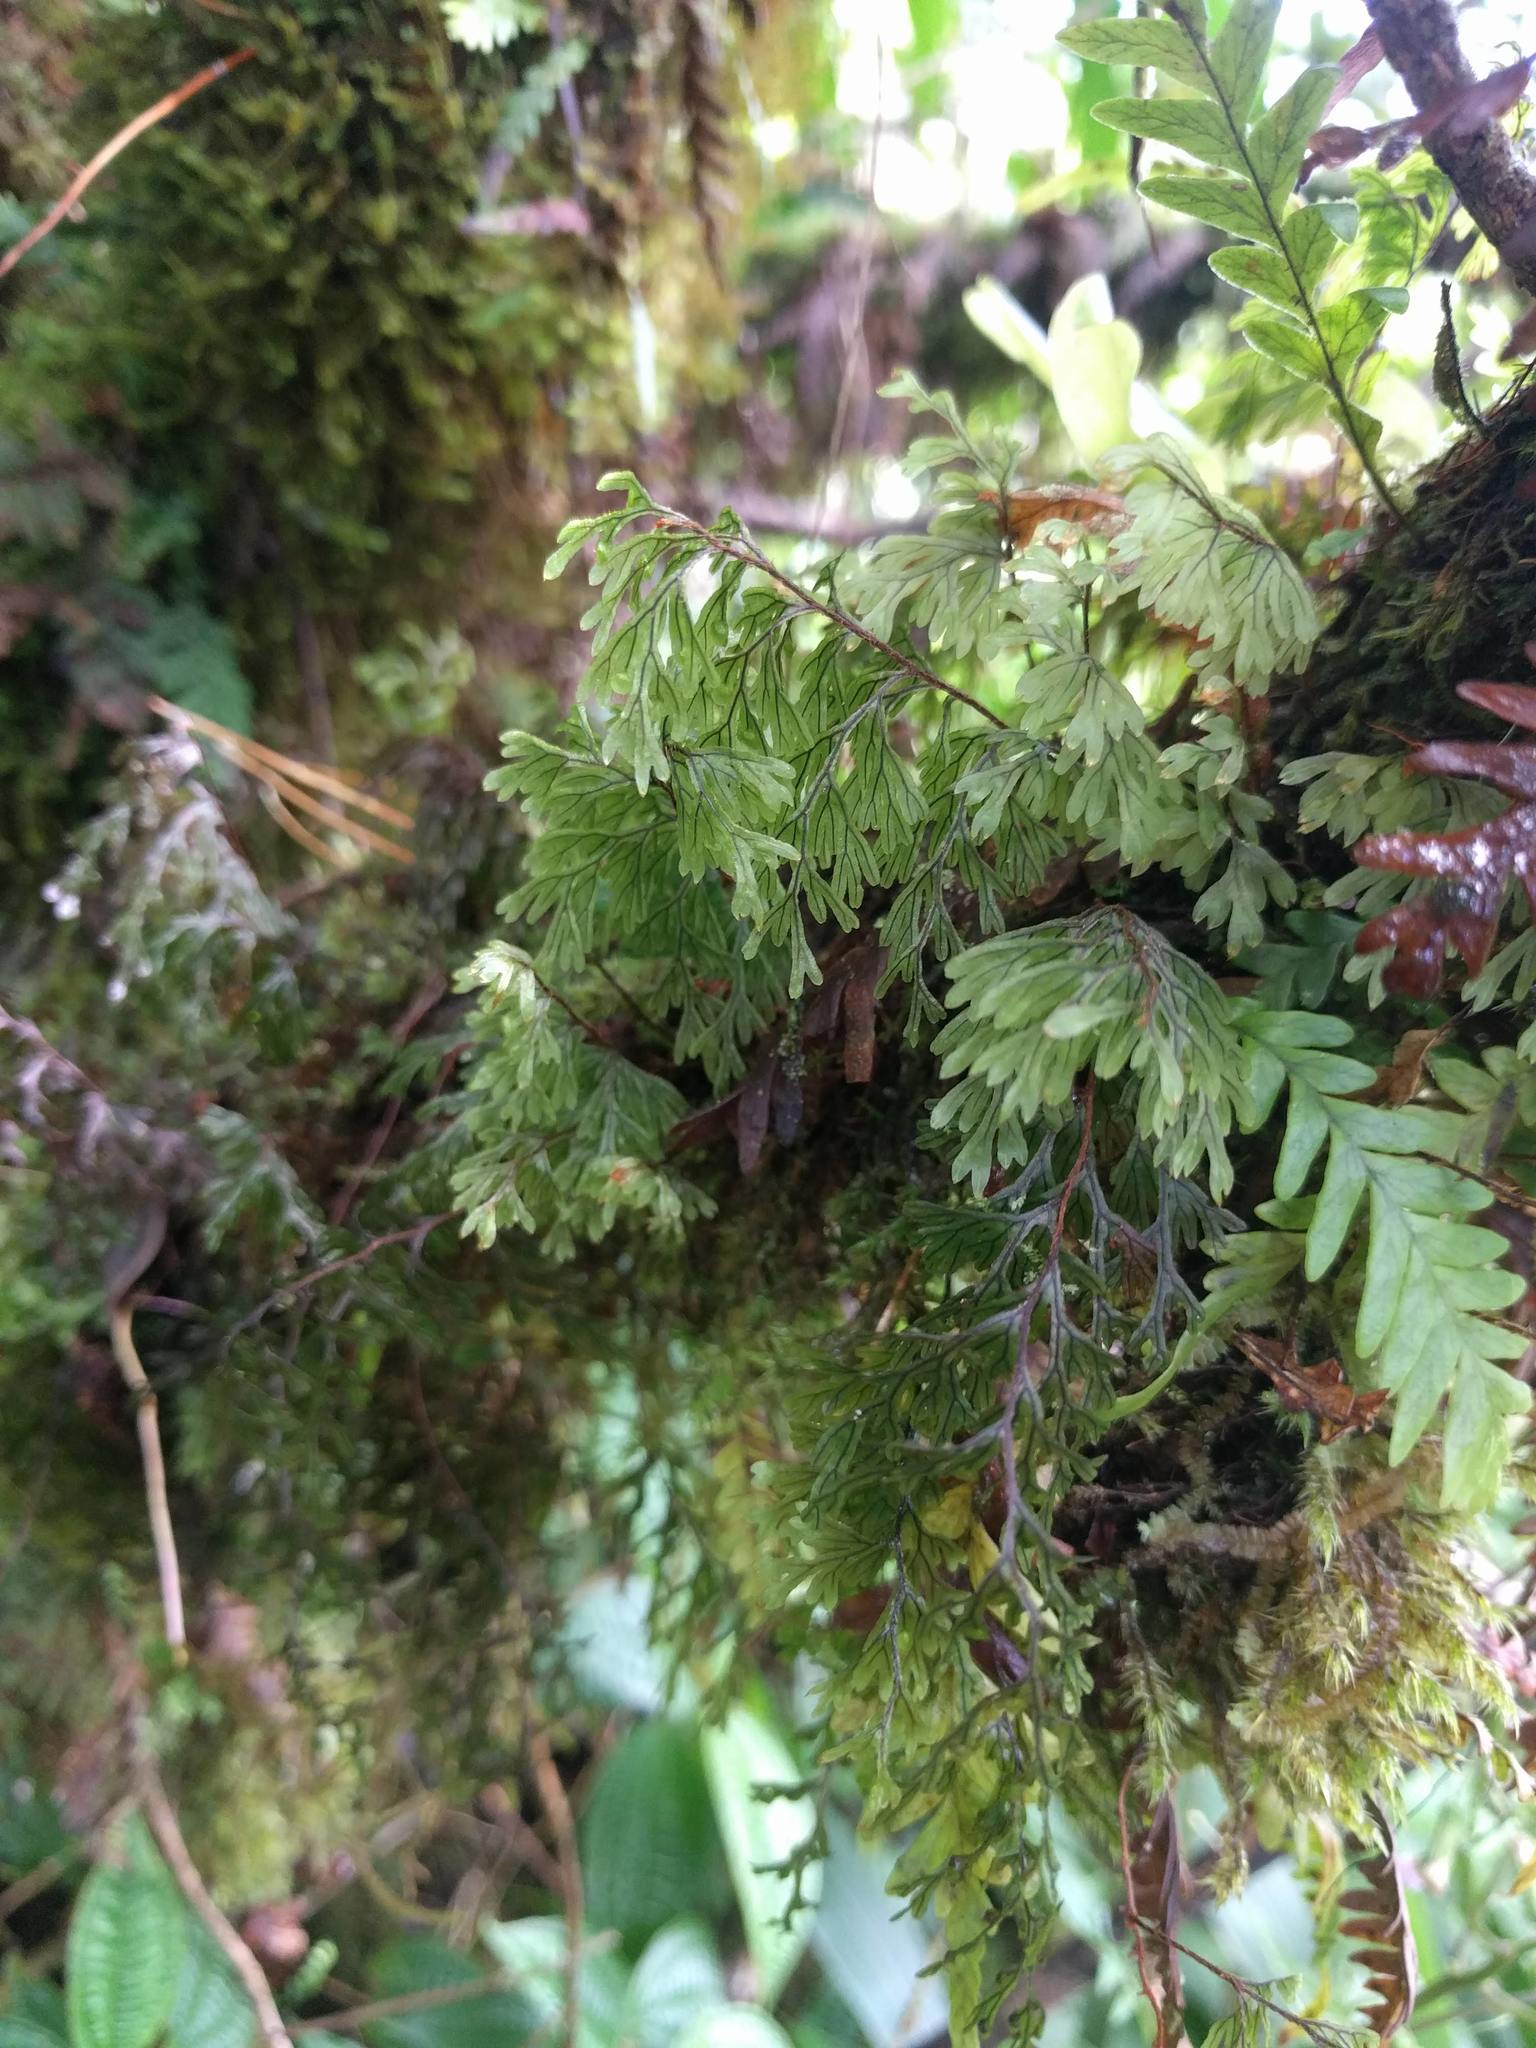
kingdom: Plantae
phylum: Tracheophyta
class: Polypodiopsida
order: Hymenophyllales
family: Hymenophyllaceae
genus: Hymenophyllum
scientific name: Hymenophyllum lanceolatum
